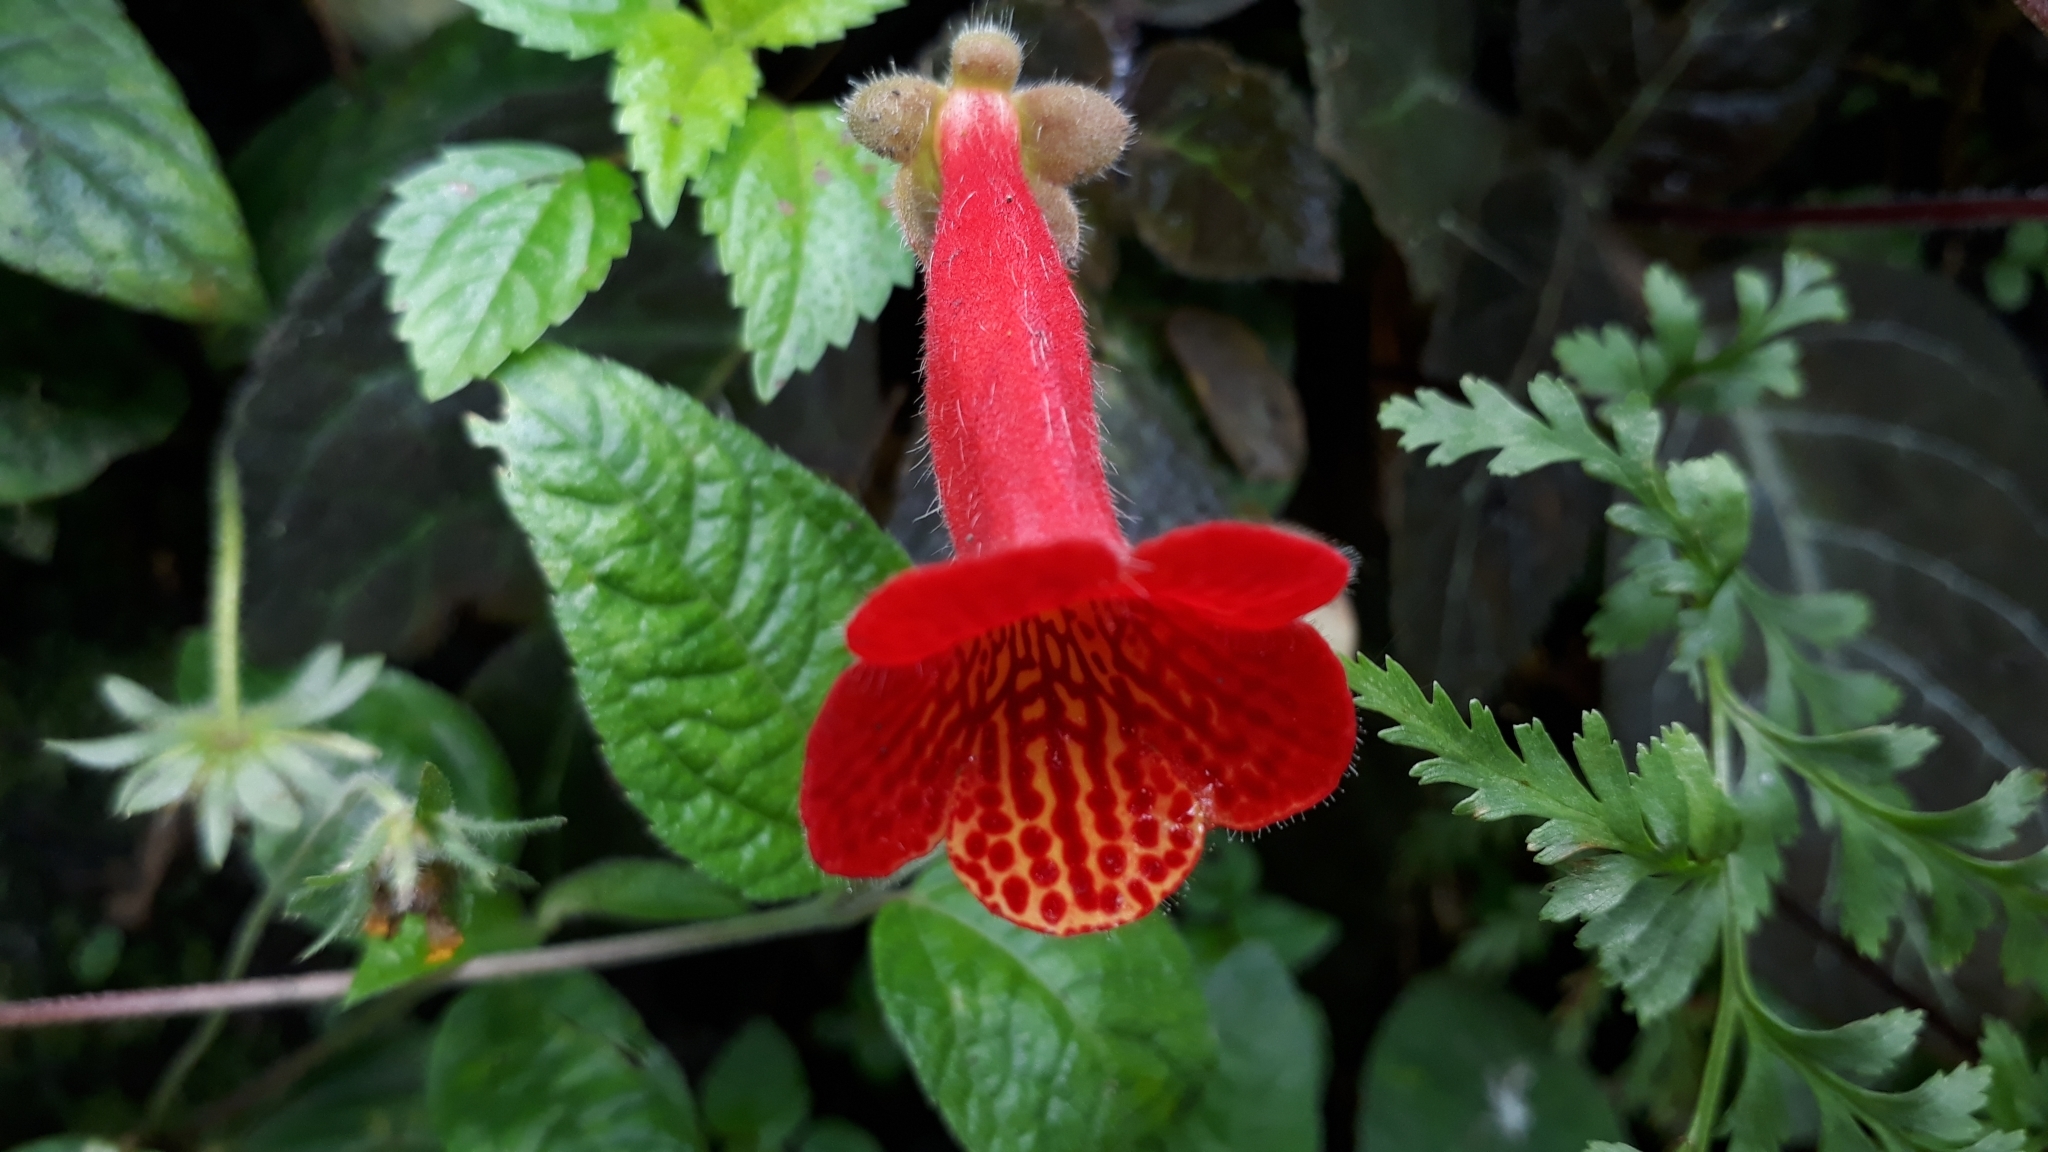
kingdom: Plantae
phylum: Tracheophyta
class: Magnoliopsida
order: Lamiales
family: Gesneriaceae
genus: Kohleria
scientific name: Kohleria amabilis
